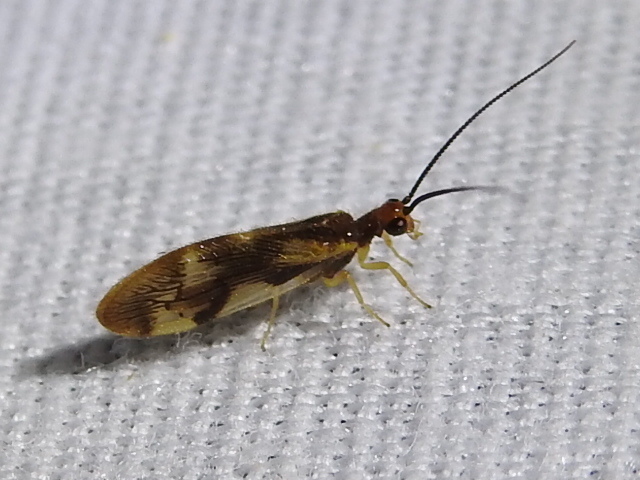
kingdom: Animalia
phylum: Arthropoda
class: Insecta
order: Neuroptera
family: Sisyridae
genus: Climacia
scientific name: Climacia areolaris
